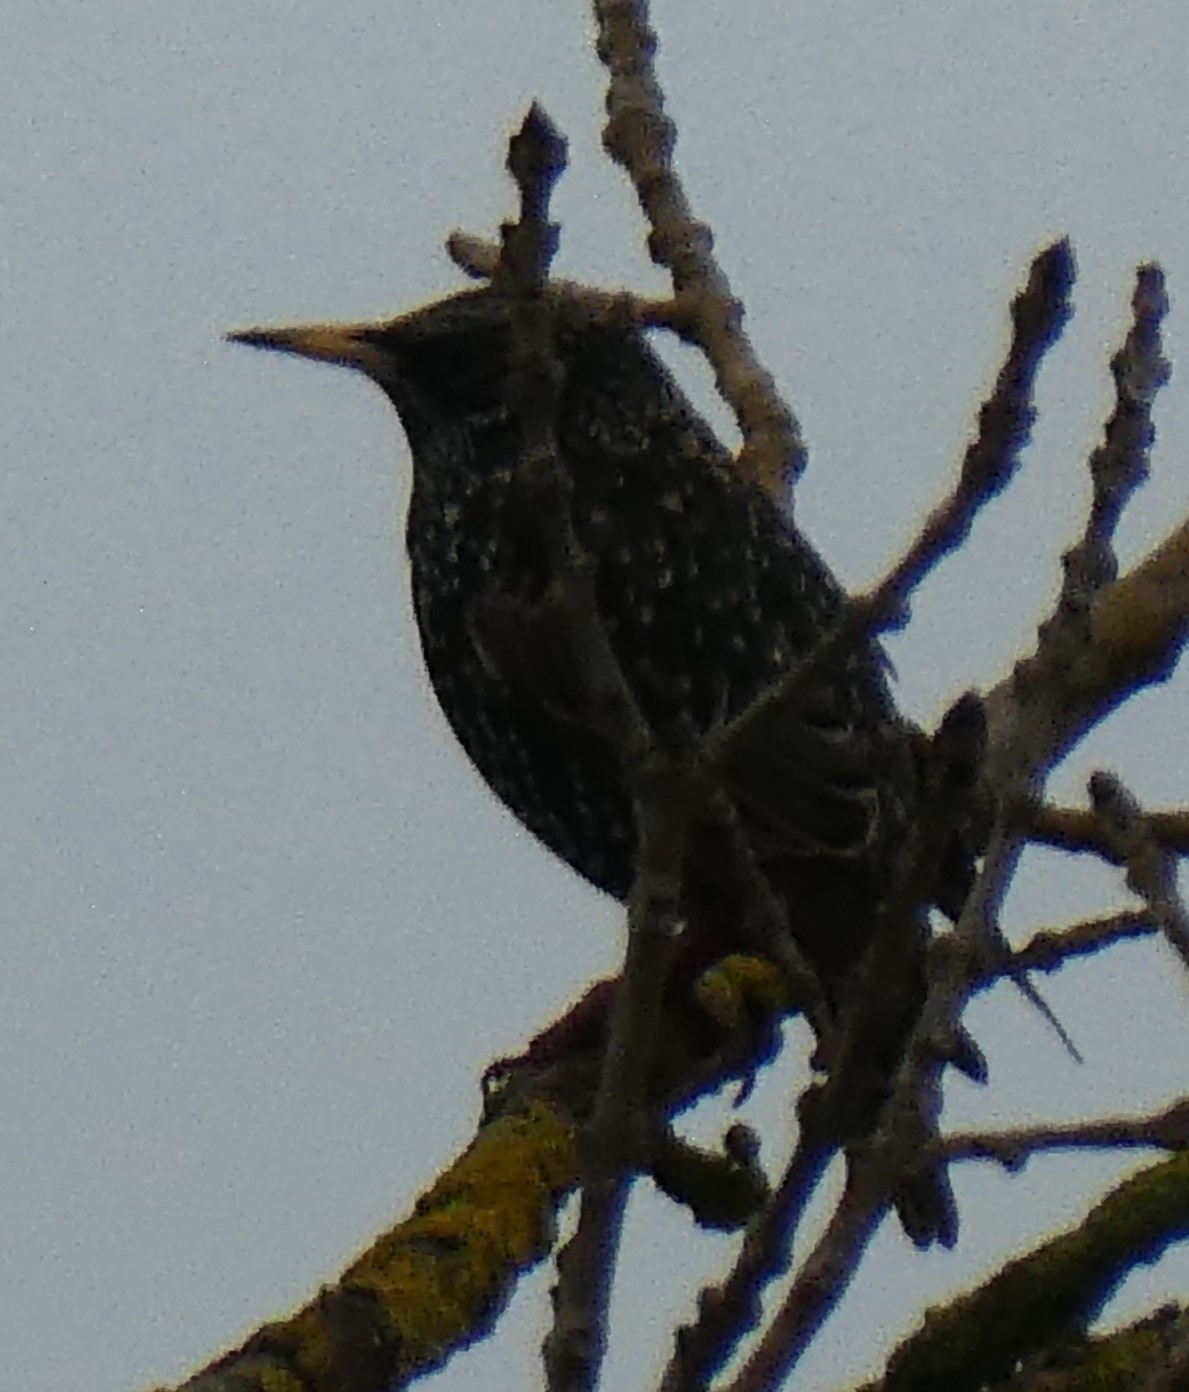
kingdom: Animalia
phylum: Chordata
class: Aves
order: Passeriformes
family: Sturnidae
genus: Sturnus
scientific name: Sturnus vulgaris
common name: Common starling
